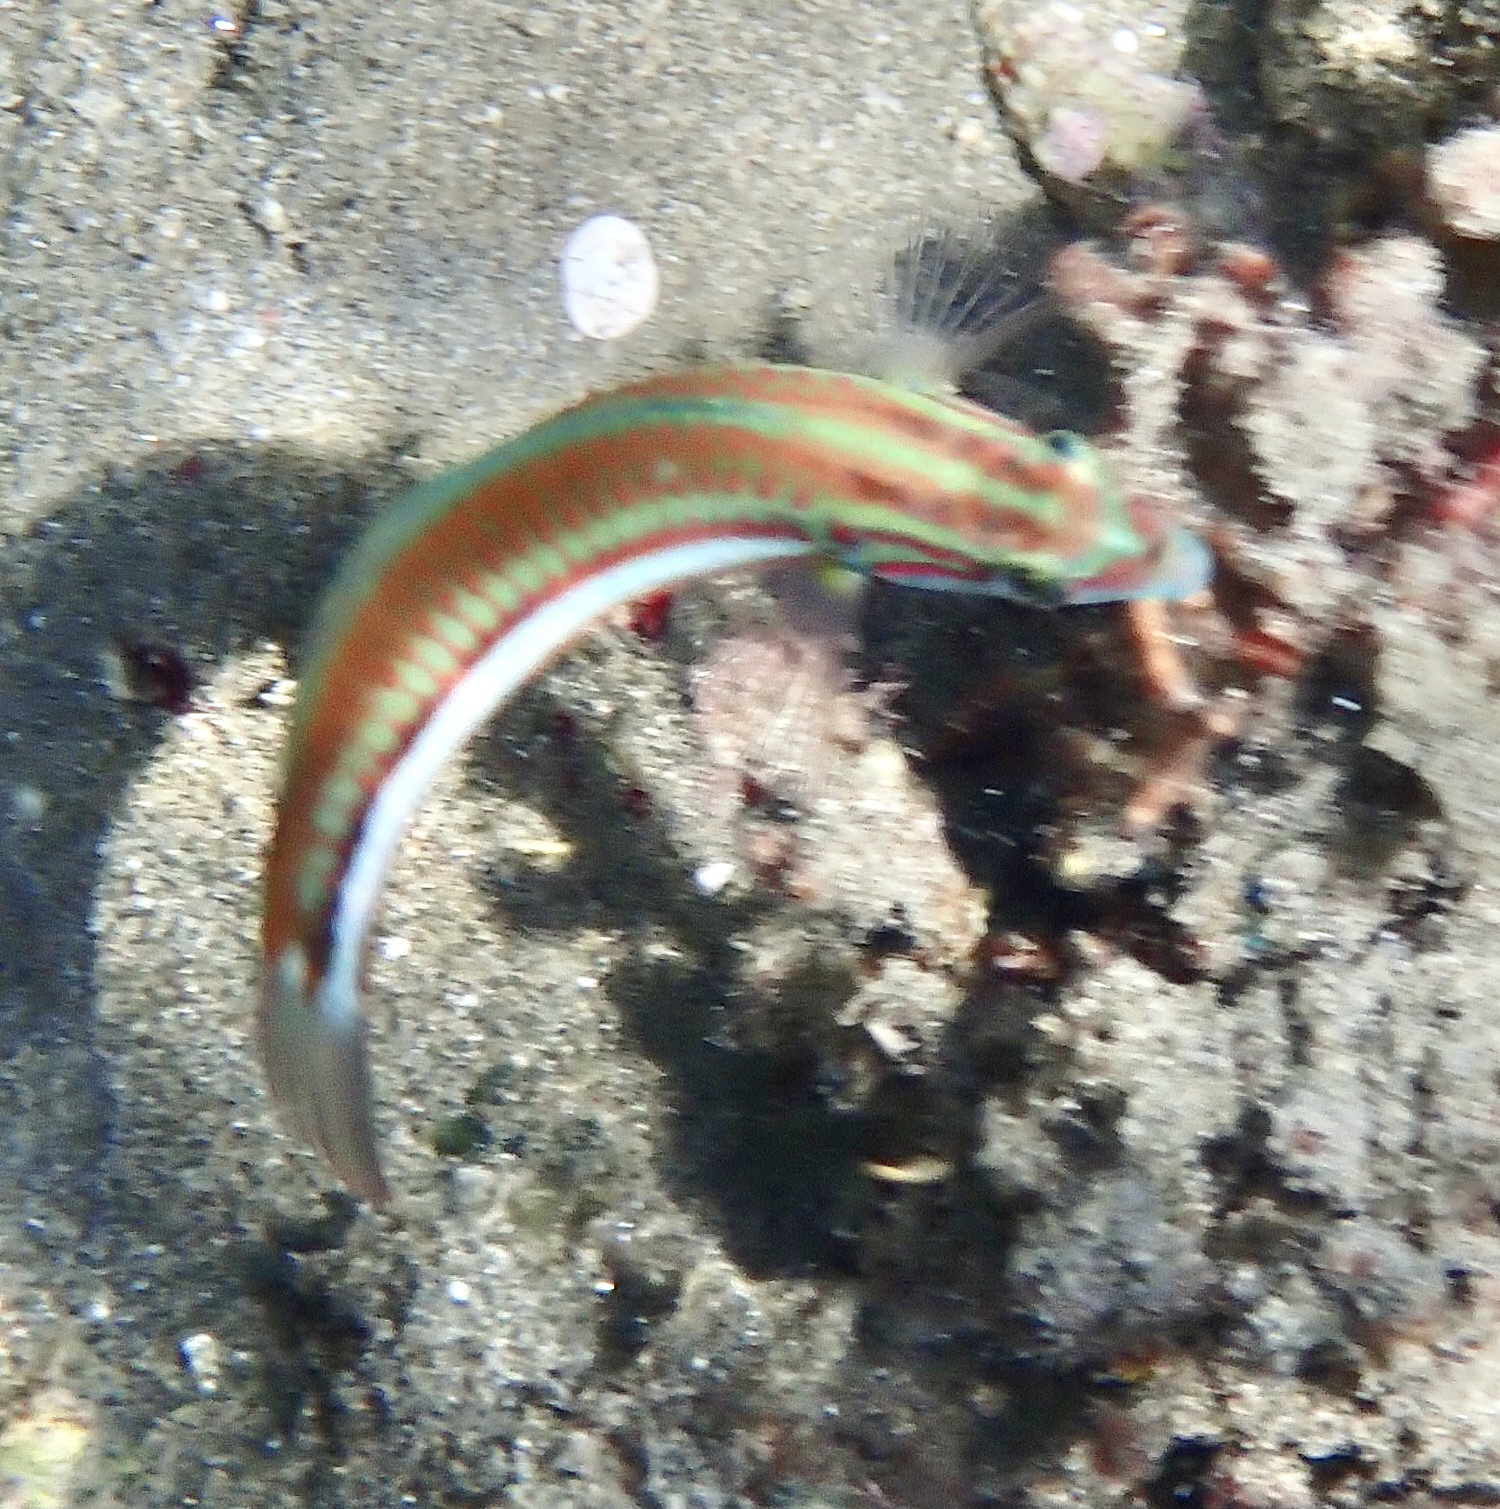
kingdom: Animalia
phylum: Chordata
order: Perciformes
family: Labridae
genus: Thalassoma
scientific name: Thalassoma rueppellii
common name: Klunzinger's wrasse
